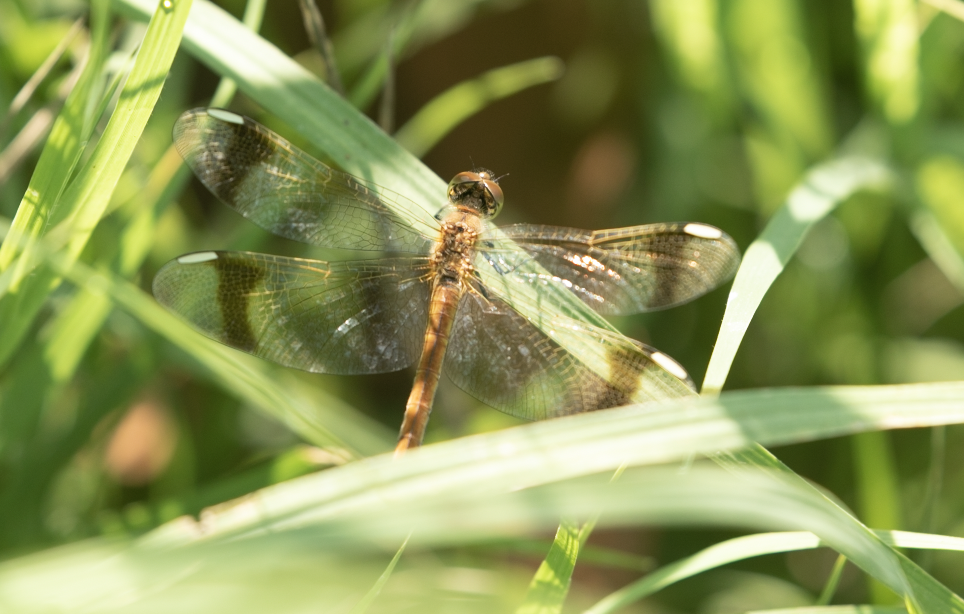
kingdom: Animalia
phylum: Arthropoda
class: Insecta
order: Odonata
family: Libellulidae
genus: Sympetrum
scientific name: Sympetrum pedemontanum
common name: Banded darter
